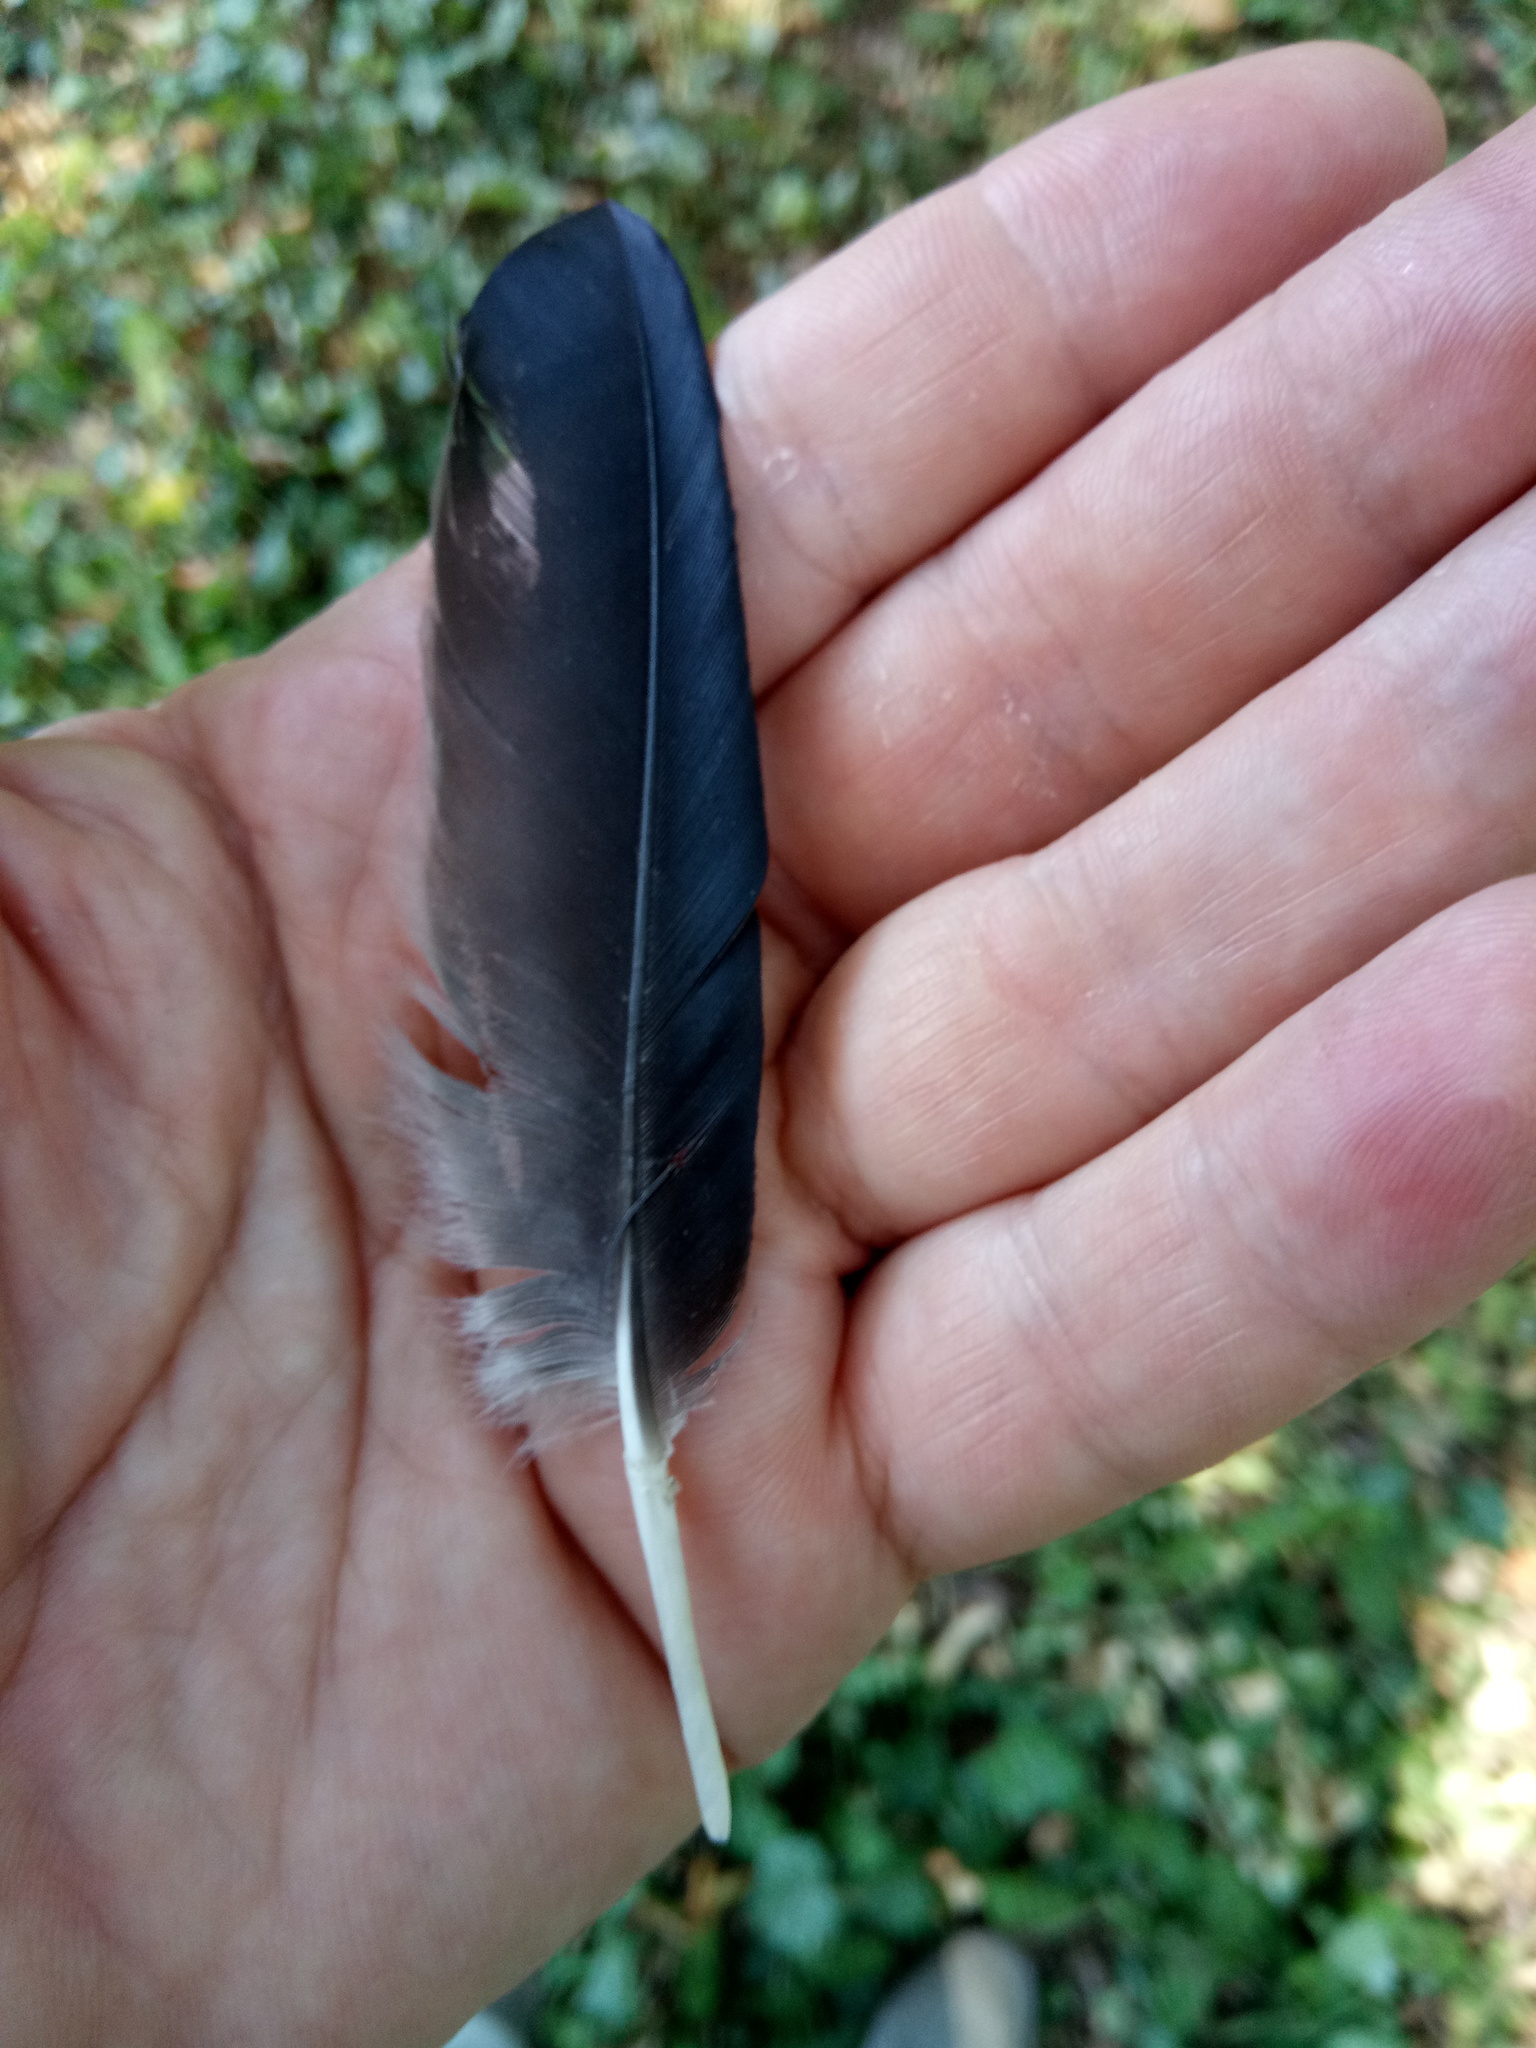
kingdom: Animalia
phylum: Chordata
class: Aves
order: Passeriformes
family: Corvidae
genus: Corvus
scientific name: Corvus frugilegus
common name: Rook
